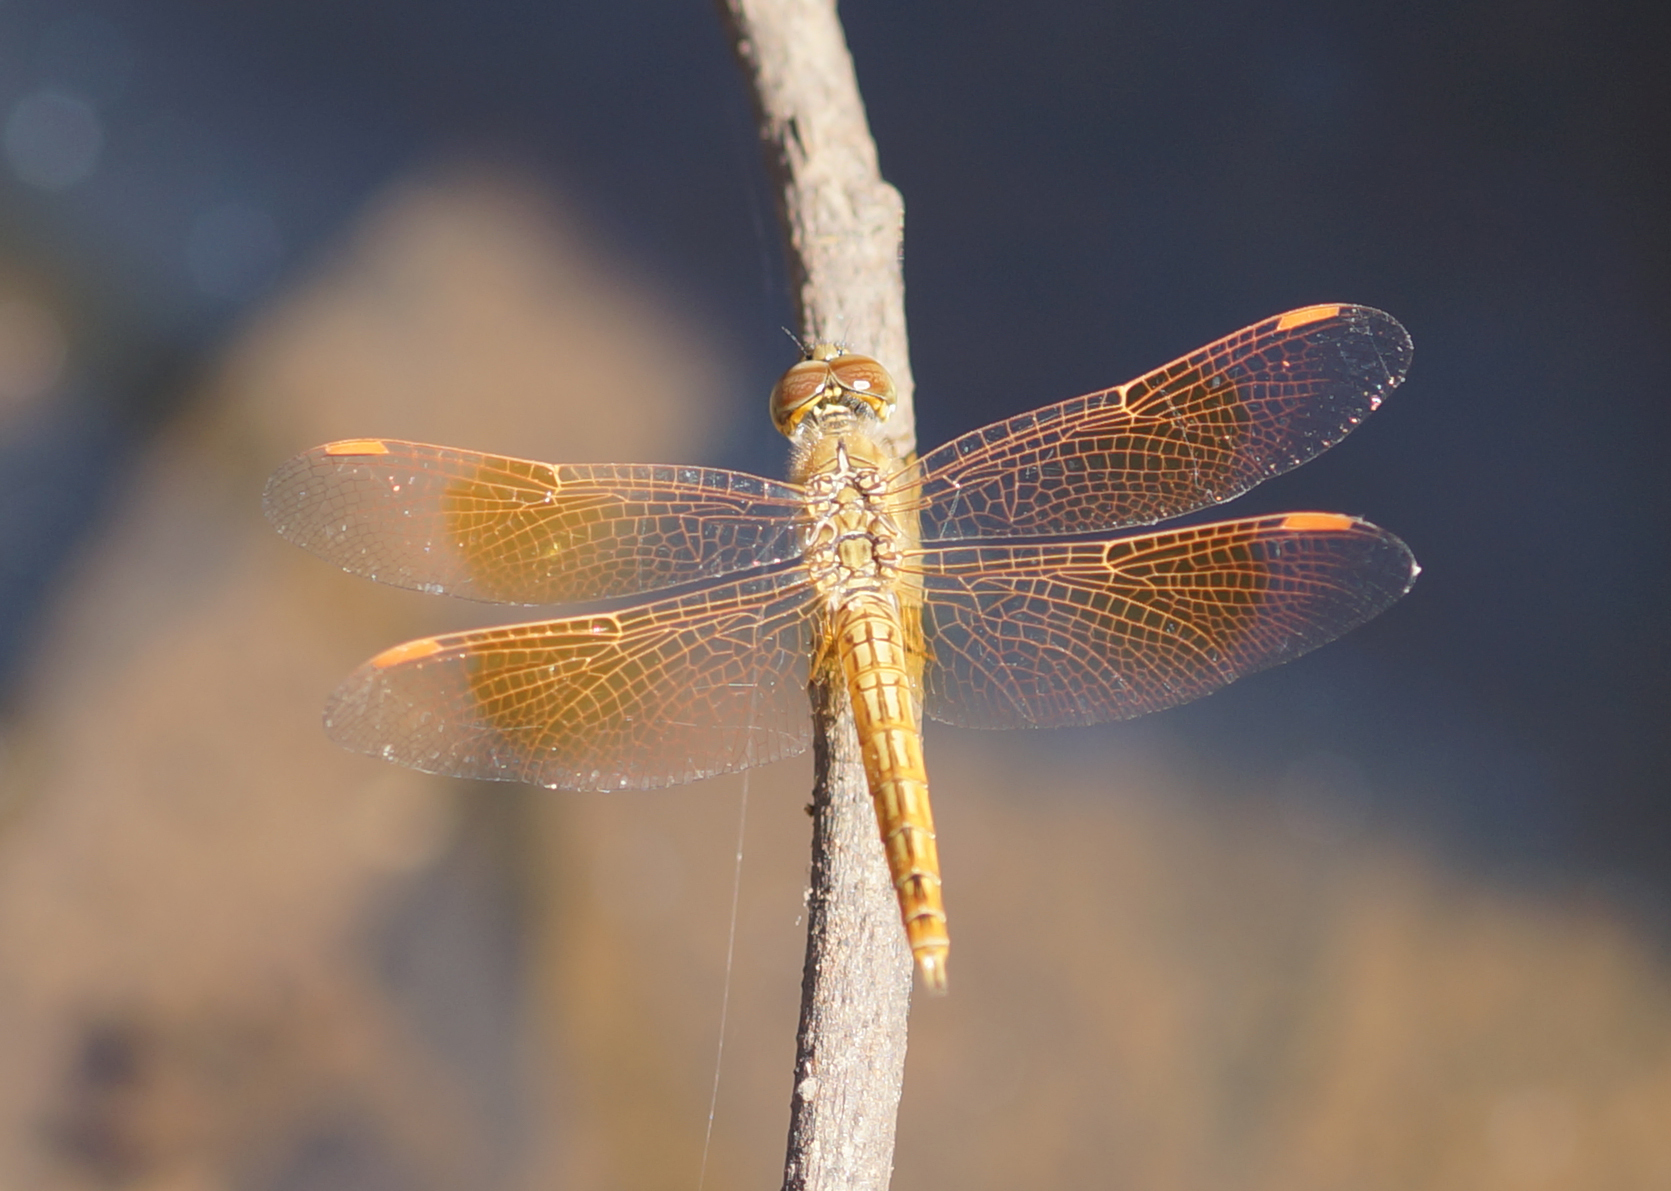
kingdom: Animalia
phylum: Arthropoda
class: Insecta
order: Odonata
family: Libellulidae
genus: Brachythemis
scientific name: Brachythemis contaminata
